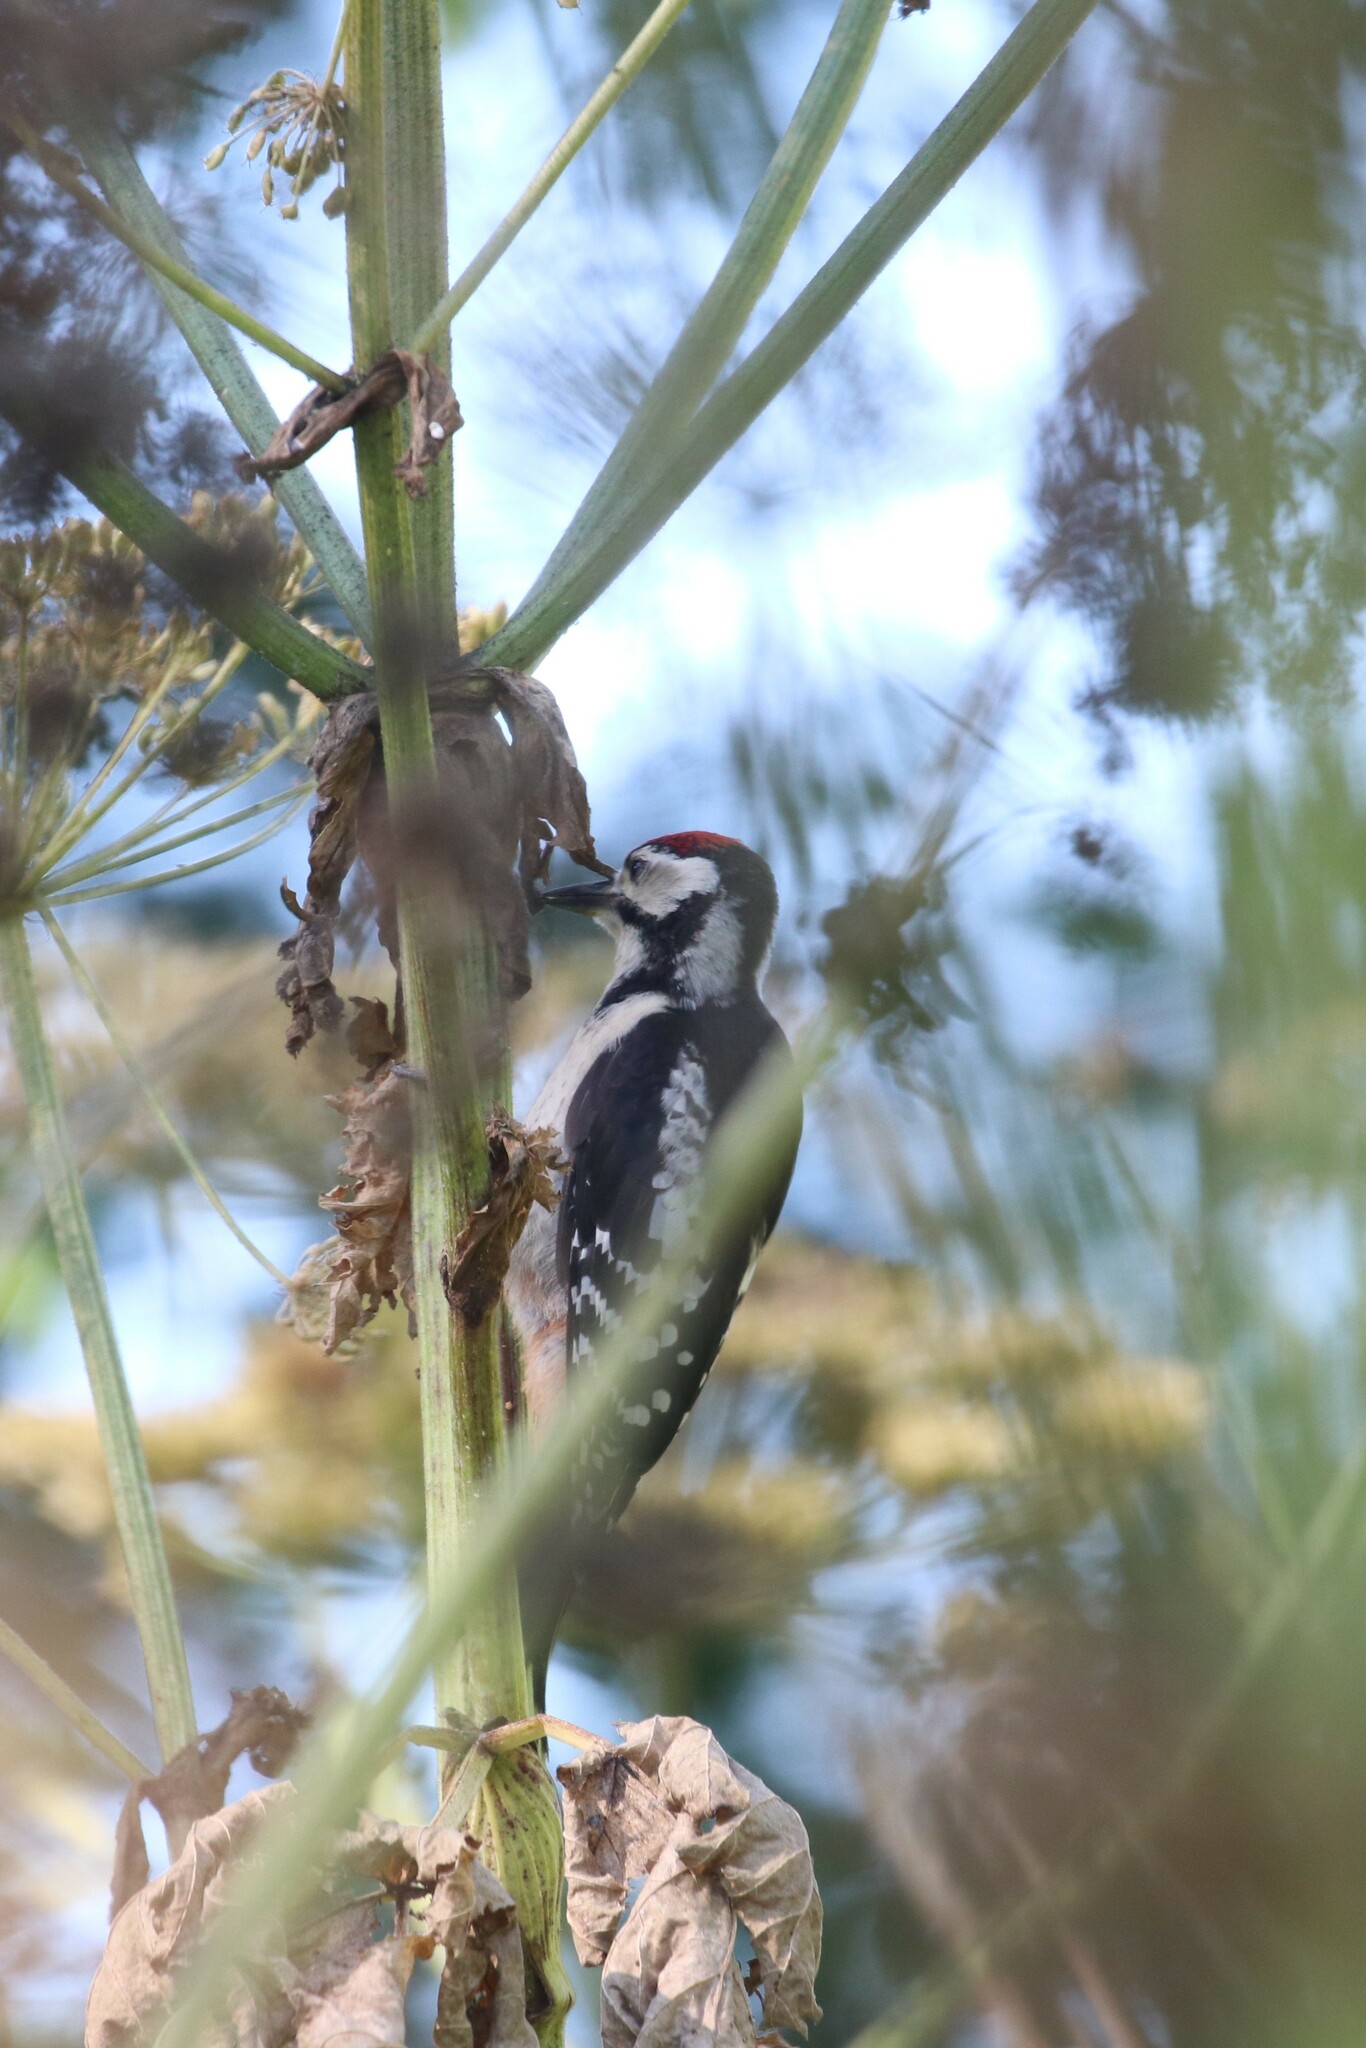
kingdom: Animalia
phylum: Chordata
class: Aves
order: Piciformes
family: Picidae
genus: Dendrocopos
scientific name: Dendrocopos major
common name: Great spotted woodpecker
